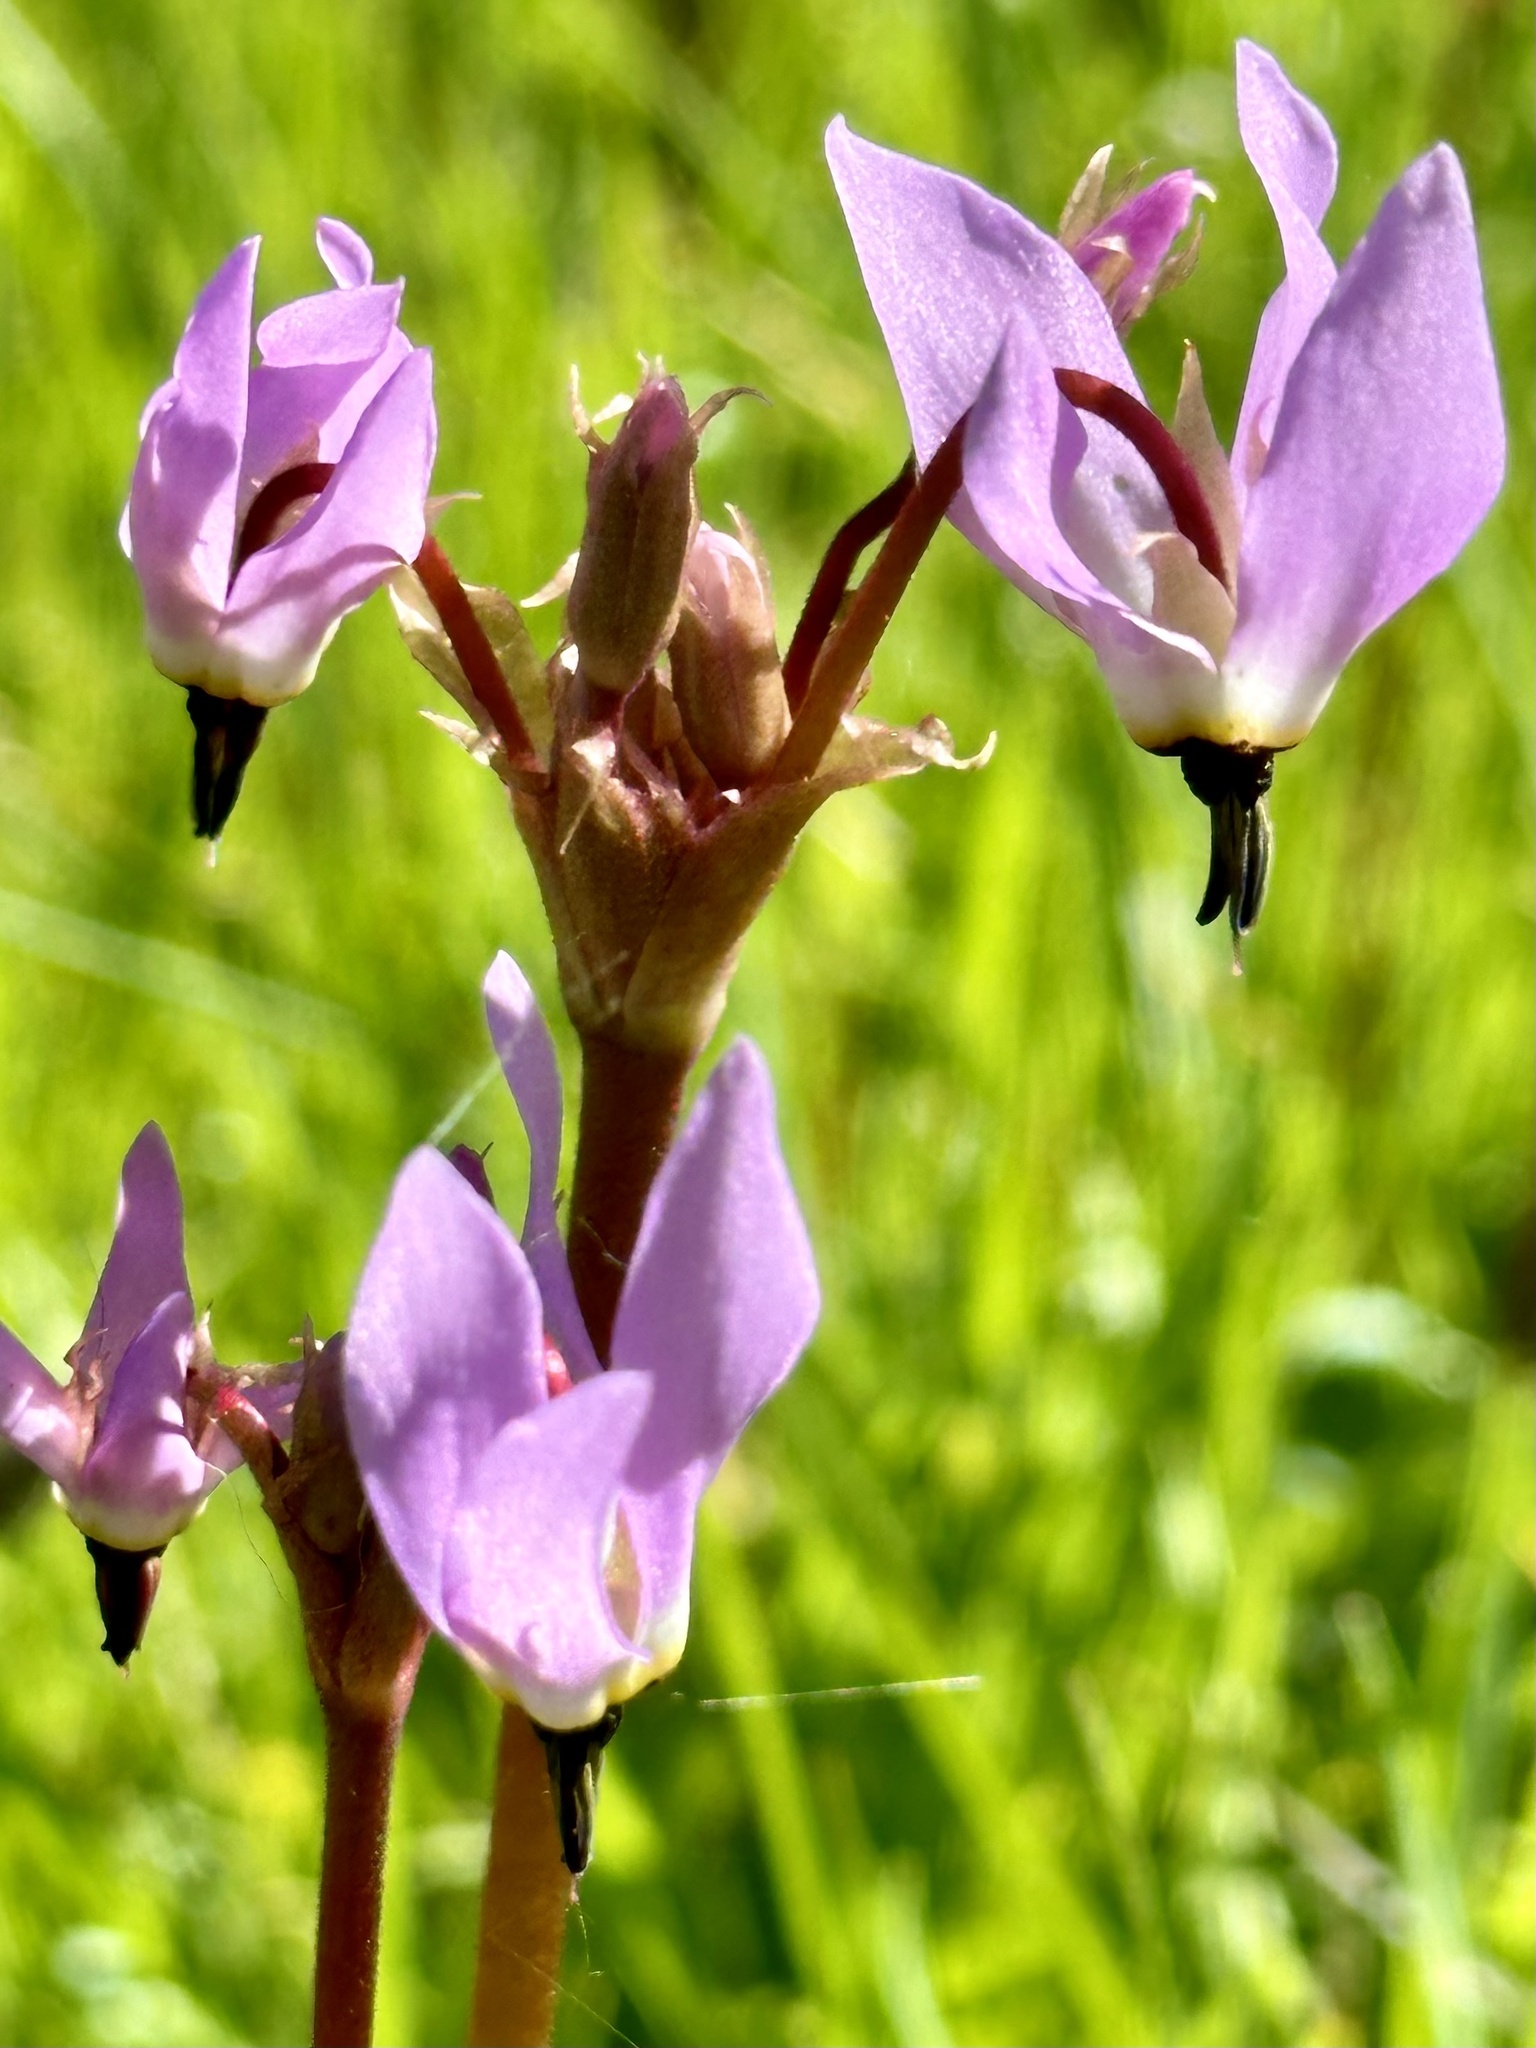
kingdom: Plantae
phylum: Tracheophyta
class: Magnoliopsida
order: Ericales
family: Primulaceae
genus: Dodecatheon
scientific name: Dodecatheon hendersonii
